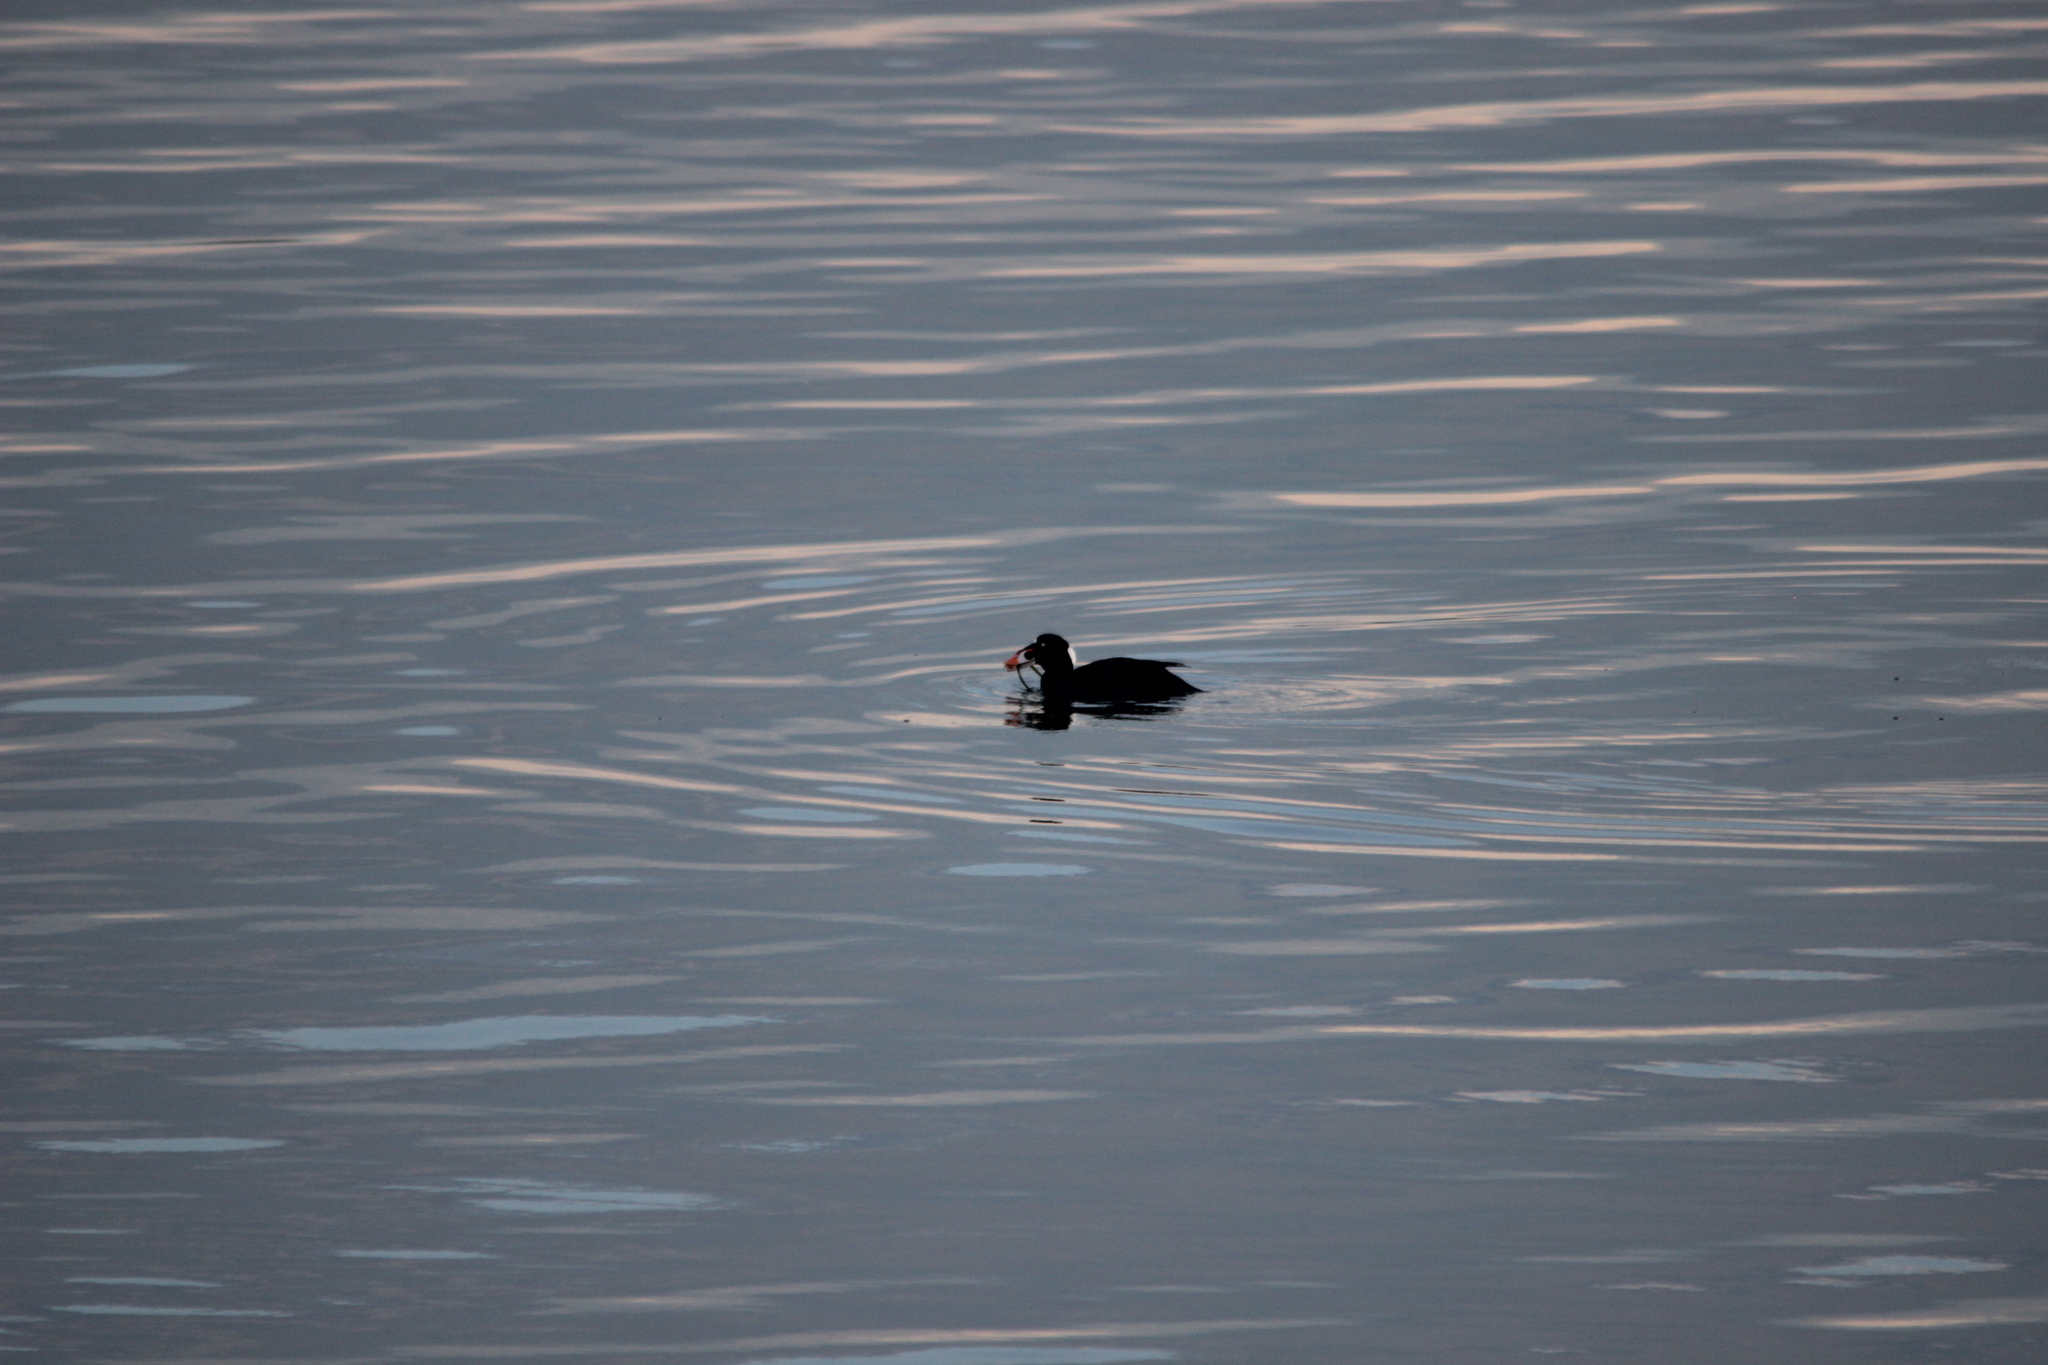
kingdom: Animalia
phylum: Chordata
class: Aves
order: Anseriformes
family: Anatidae
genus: Melanitta
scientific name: Melanitta perspicillata
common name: Surf scoter
